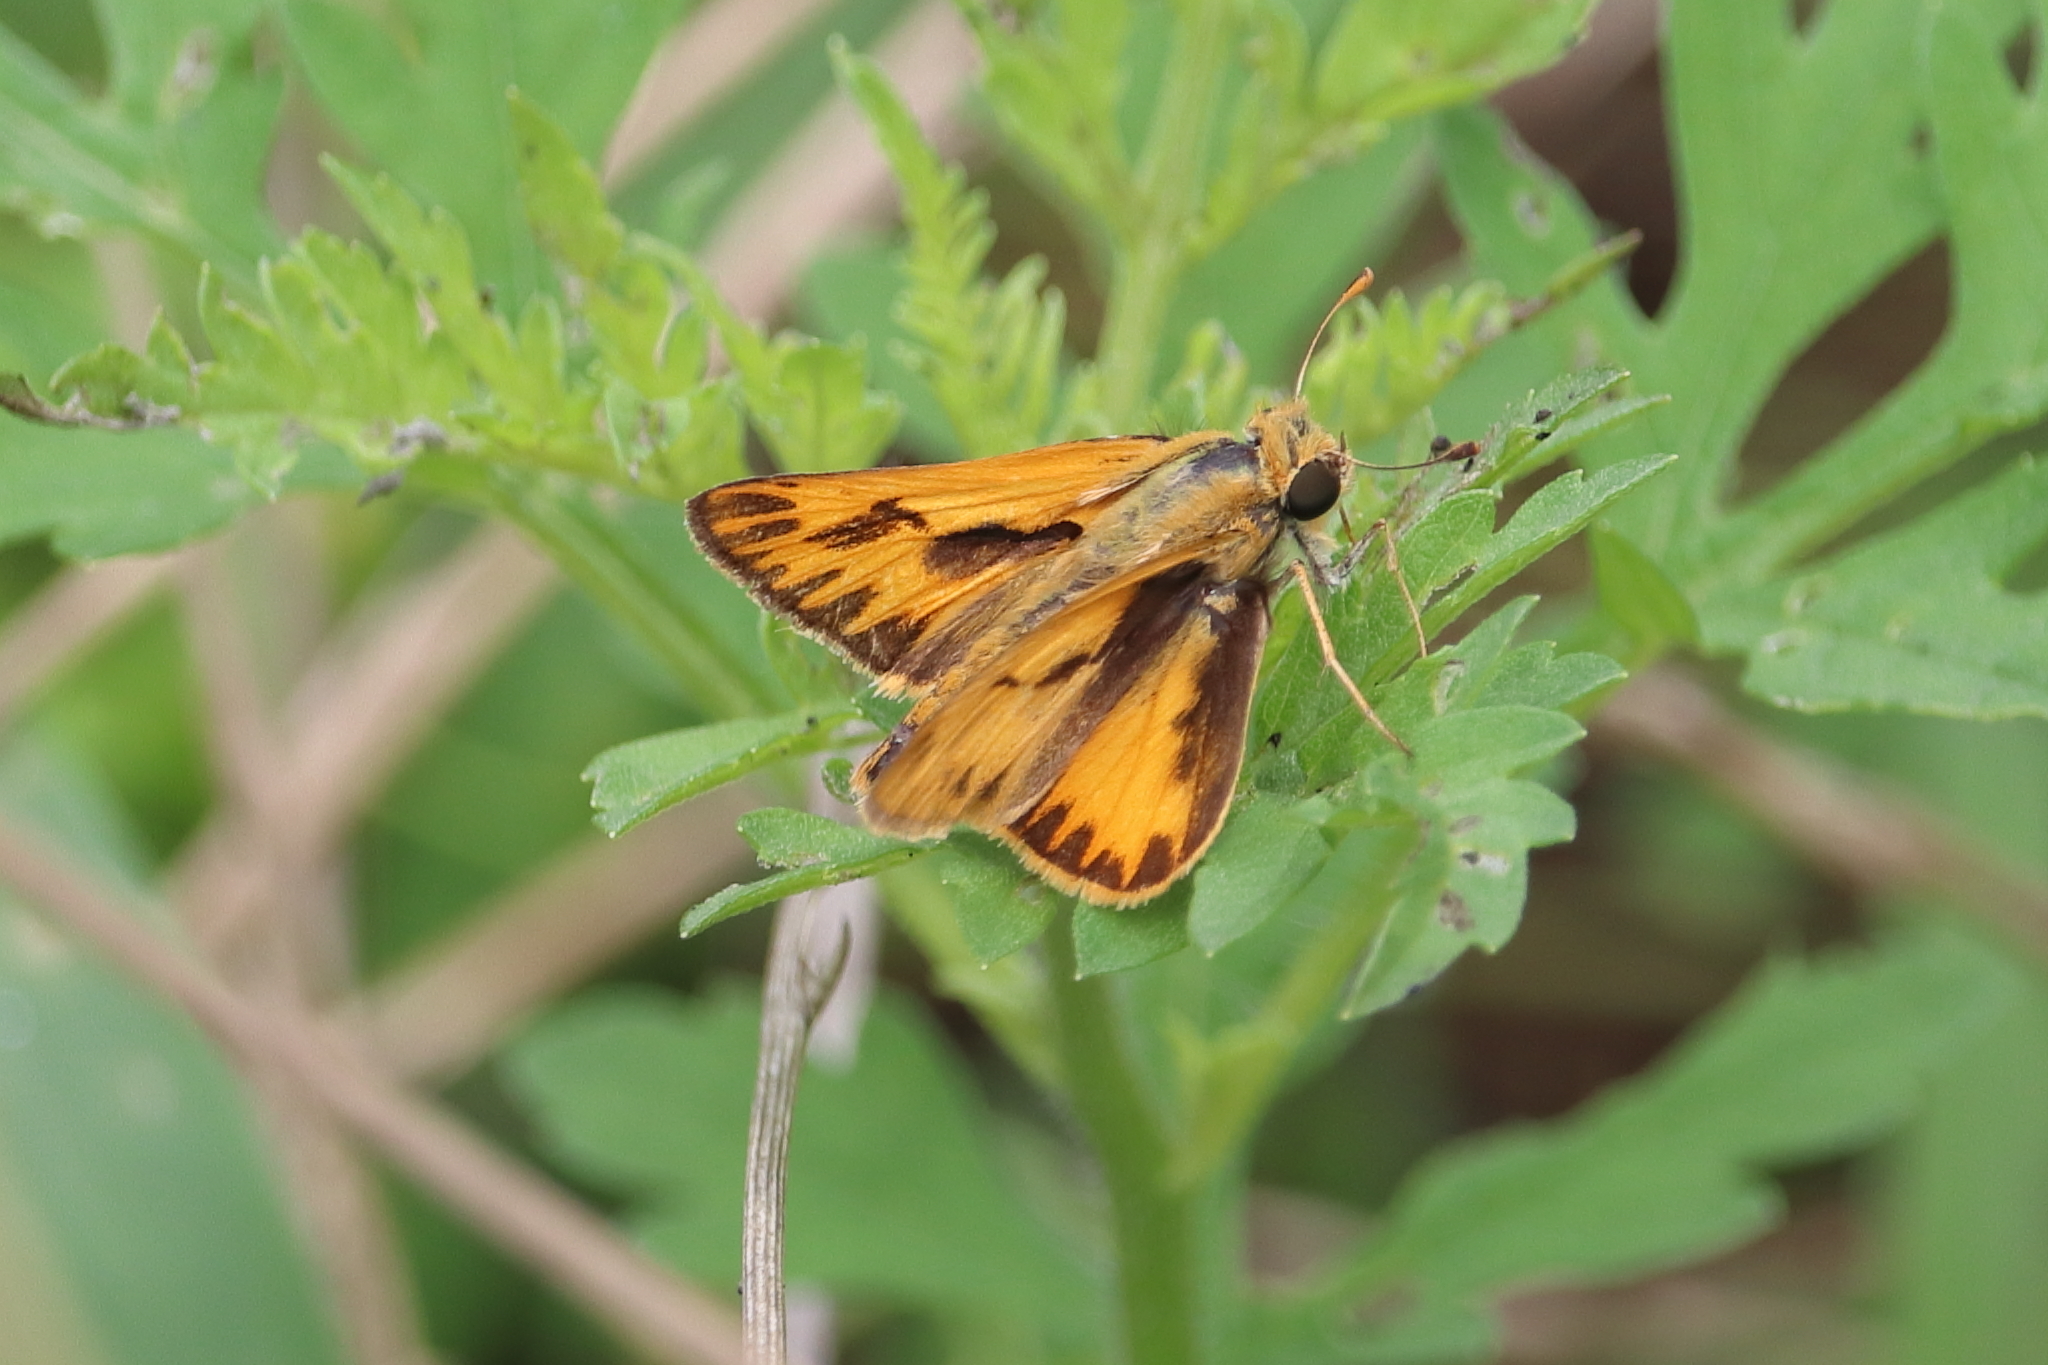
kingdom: Animalia
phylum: Arthropoda
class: Insecta
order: Lepidoptera
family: Hesperiidae
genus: Hylephila
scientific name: Hylephila phyleus
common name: Fiery skipper
